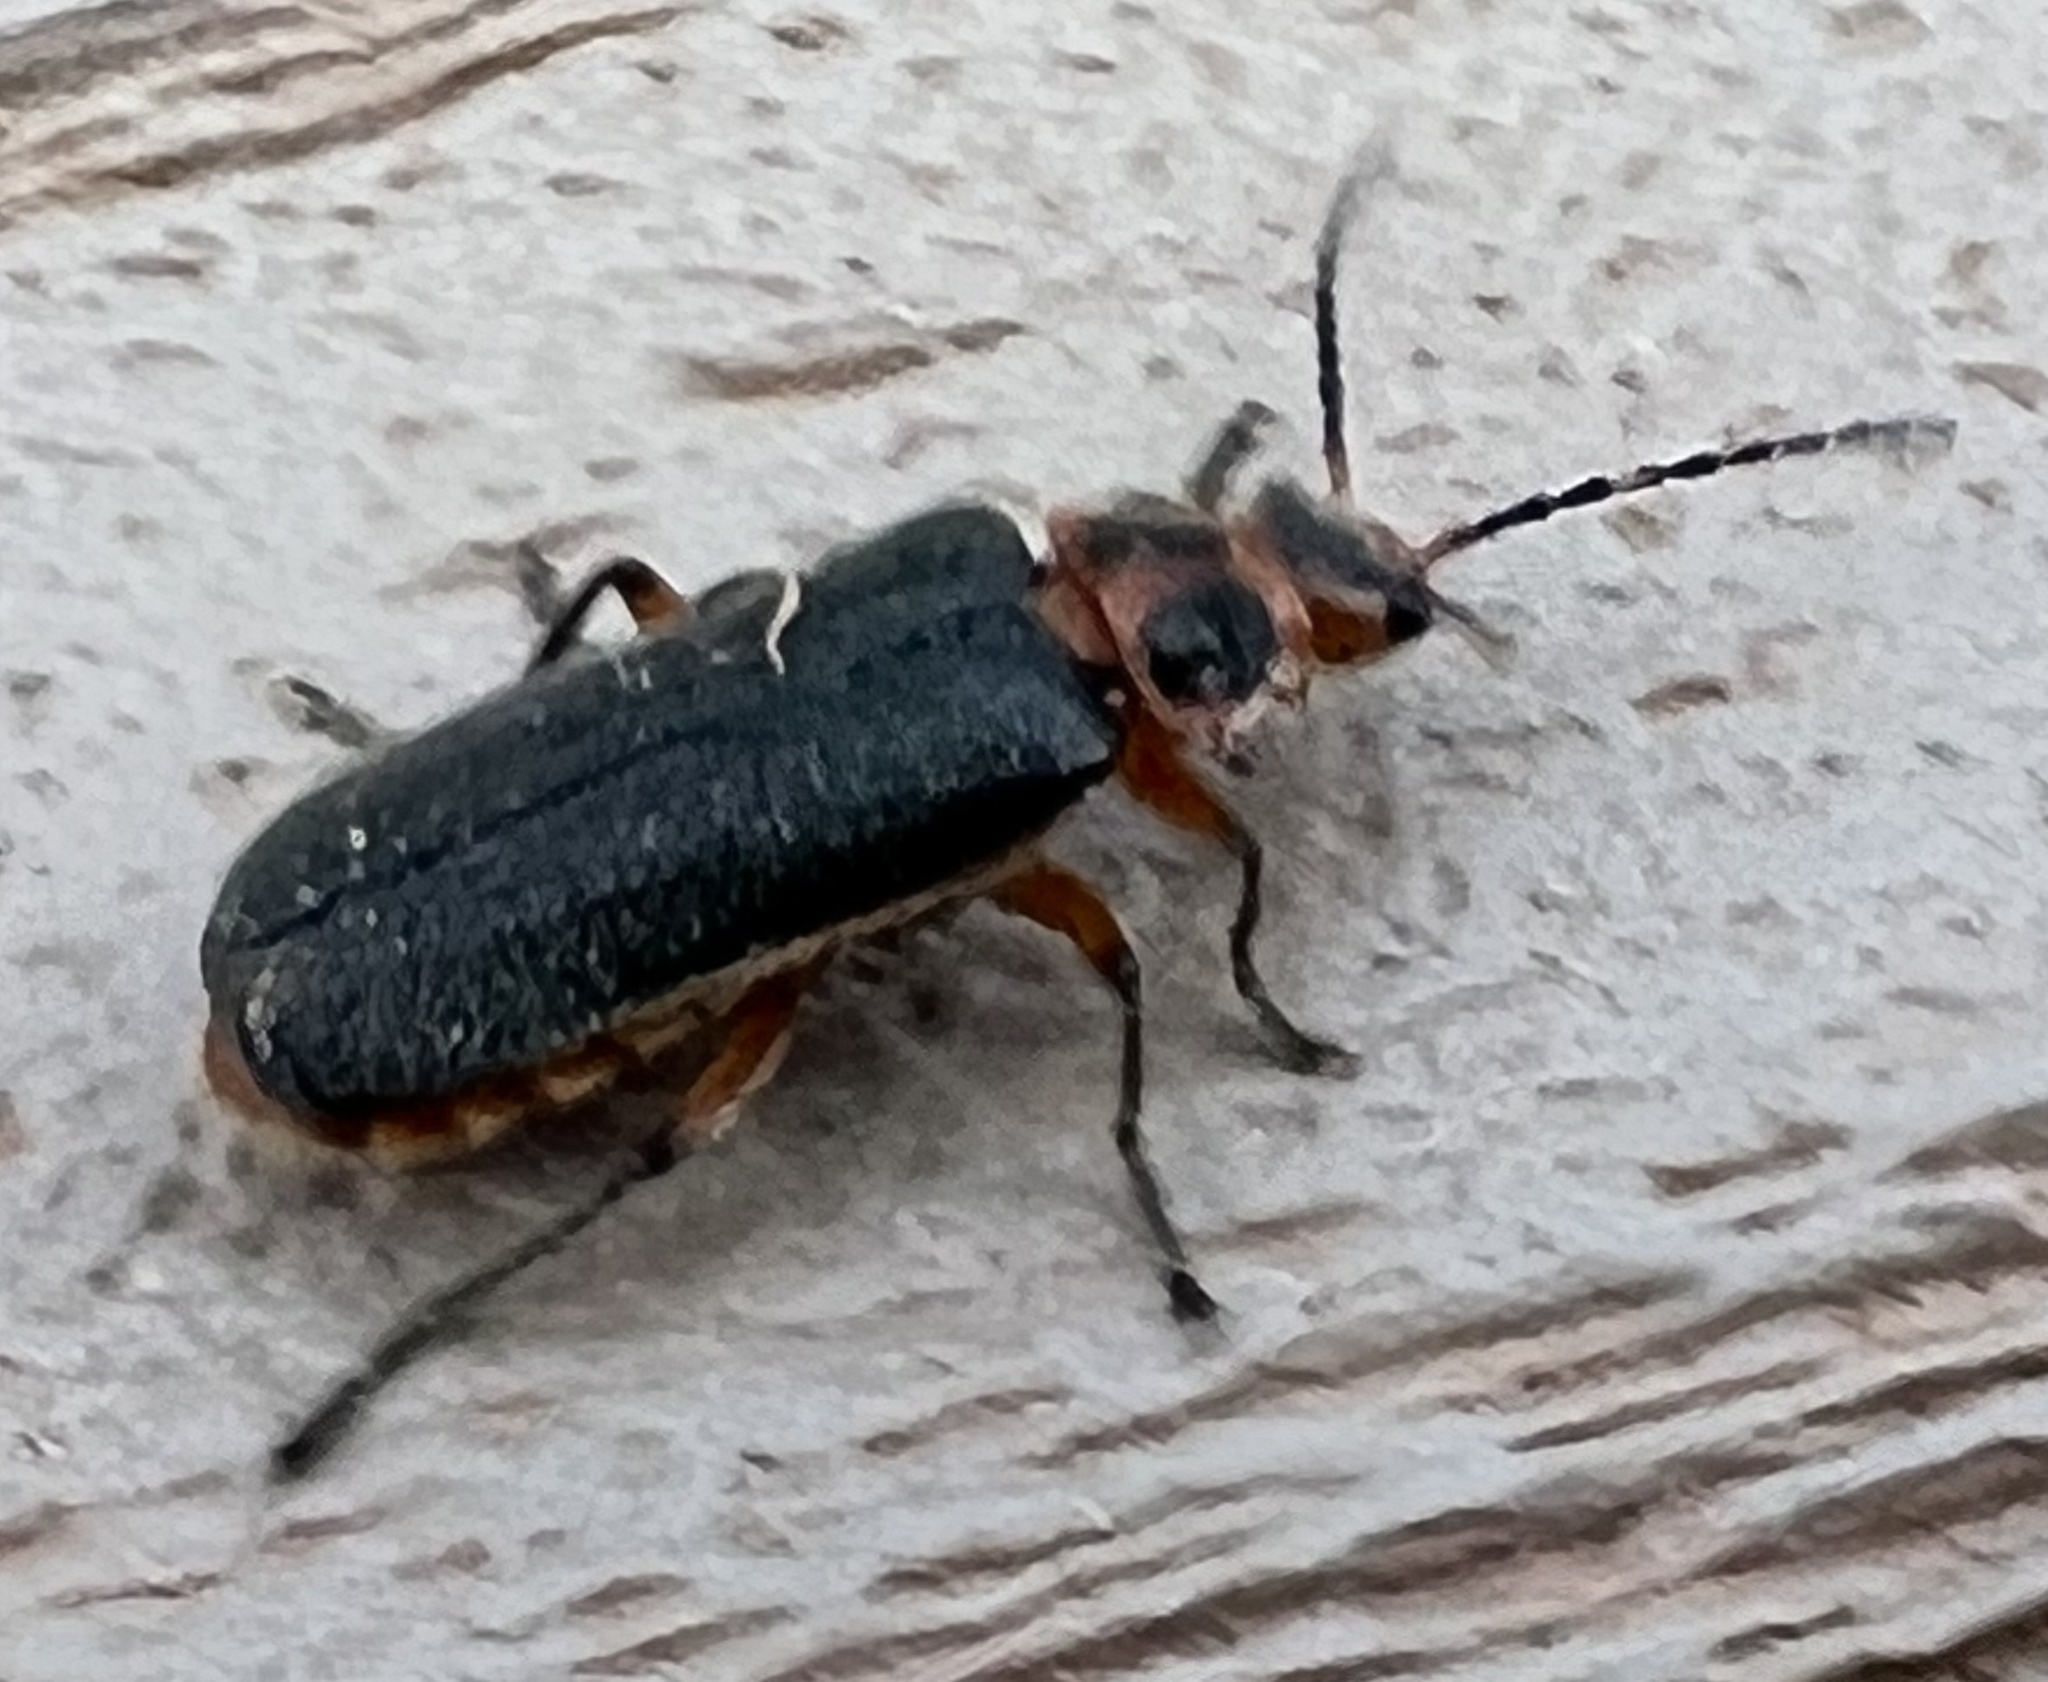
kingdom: Animalia
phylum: Arthropoda
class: Insecta
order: Coleoptera
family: Cantharidae
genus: Atalantycha
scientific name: Atalantycha bilineata
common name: Two-lined leatherwing
